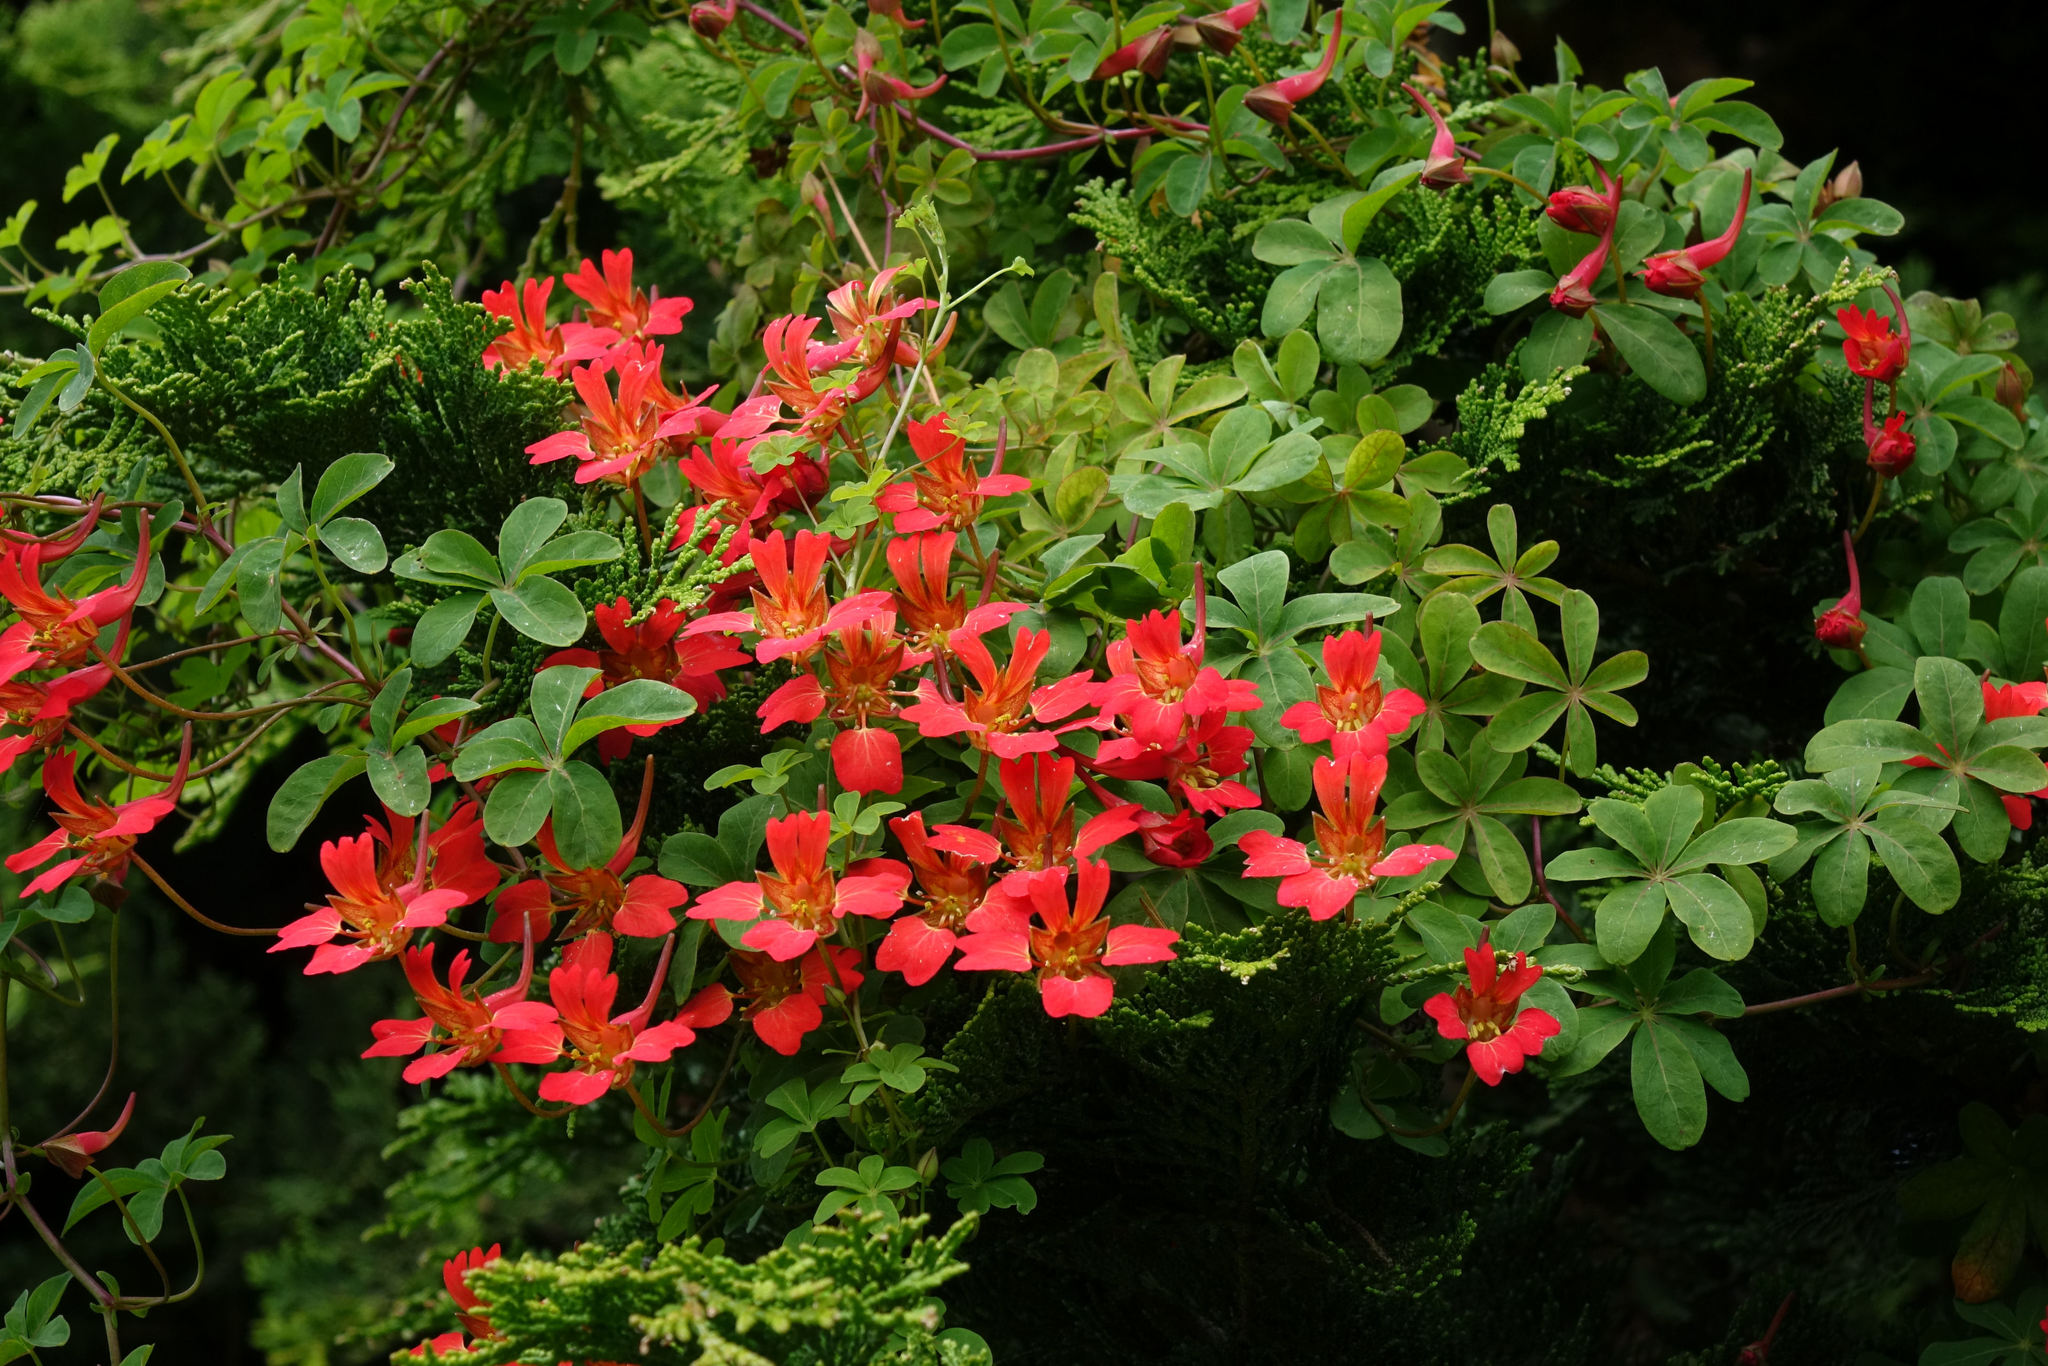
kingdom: Plantae
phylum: Tracheophyta
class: Magnoliopsida
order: Brassicales
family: Tropaeolaceae
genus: Tropaeolum
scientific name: Tropaeolum speciosum
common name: Flame nasturtium
